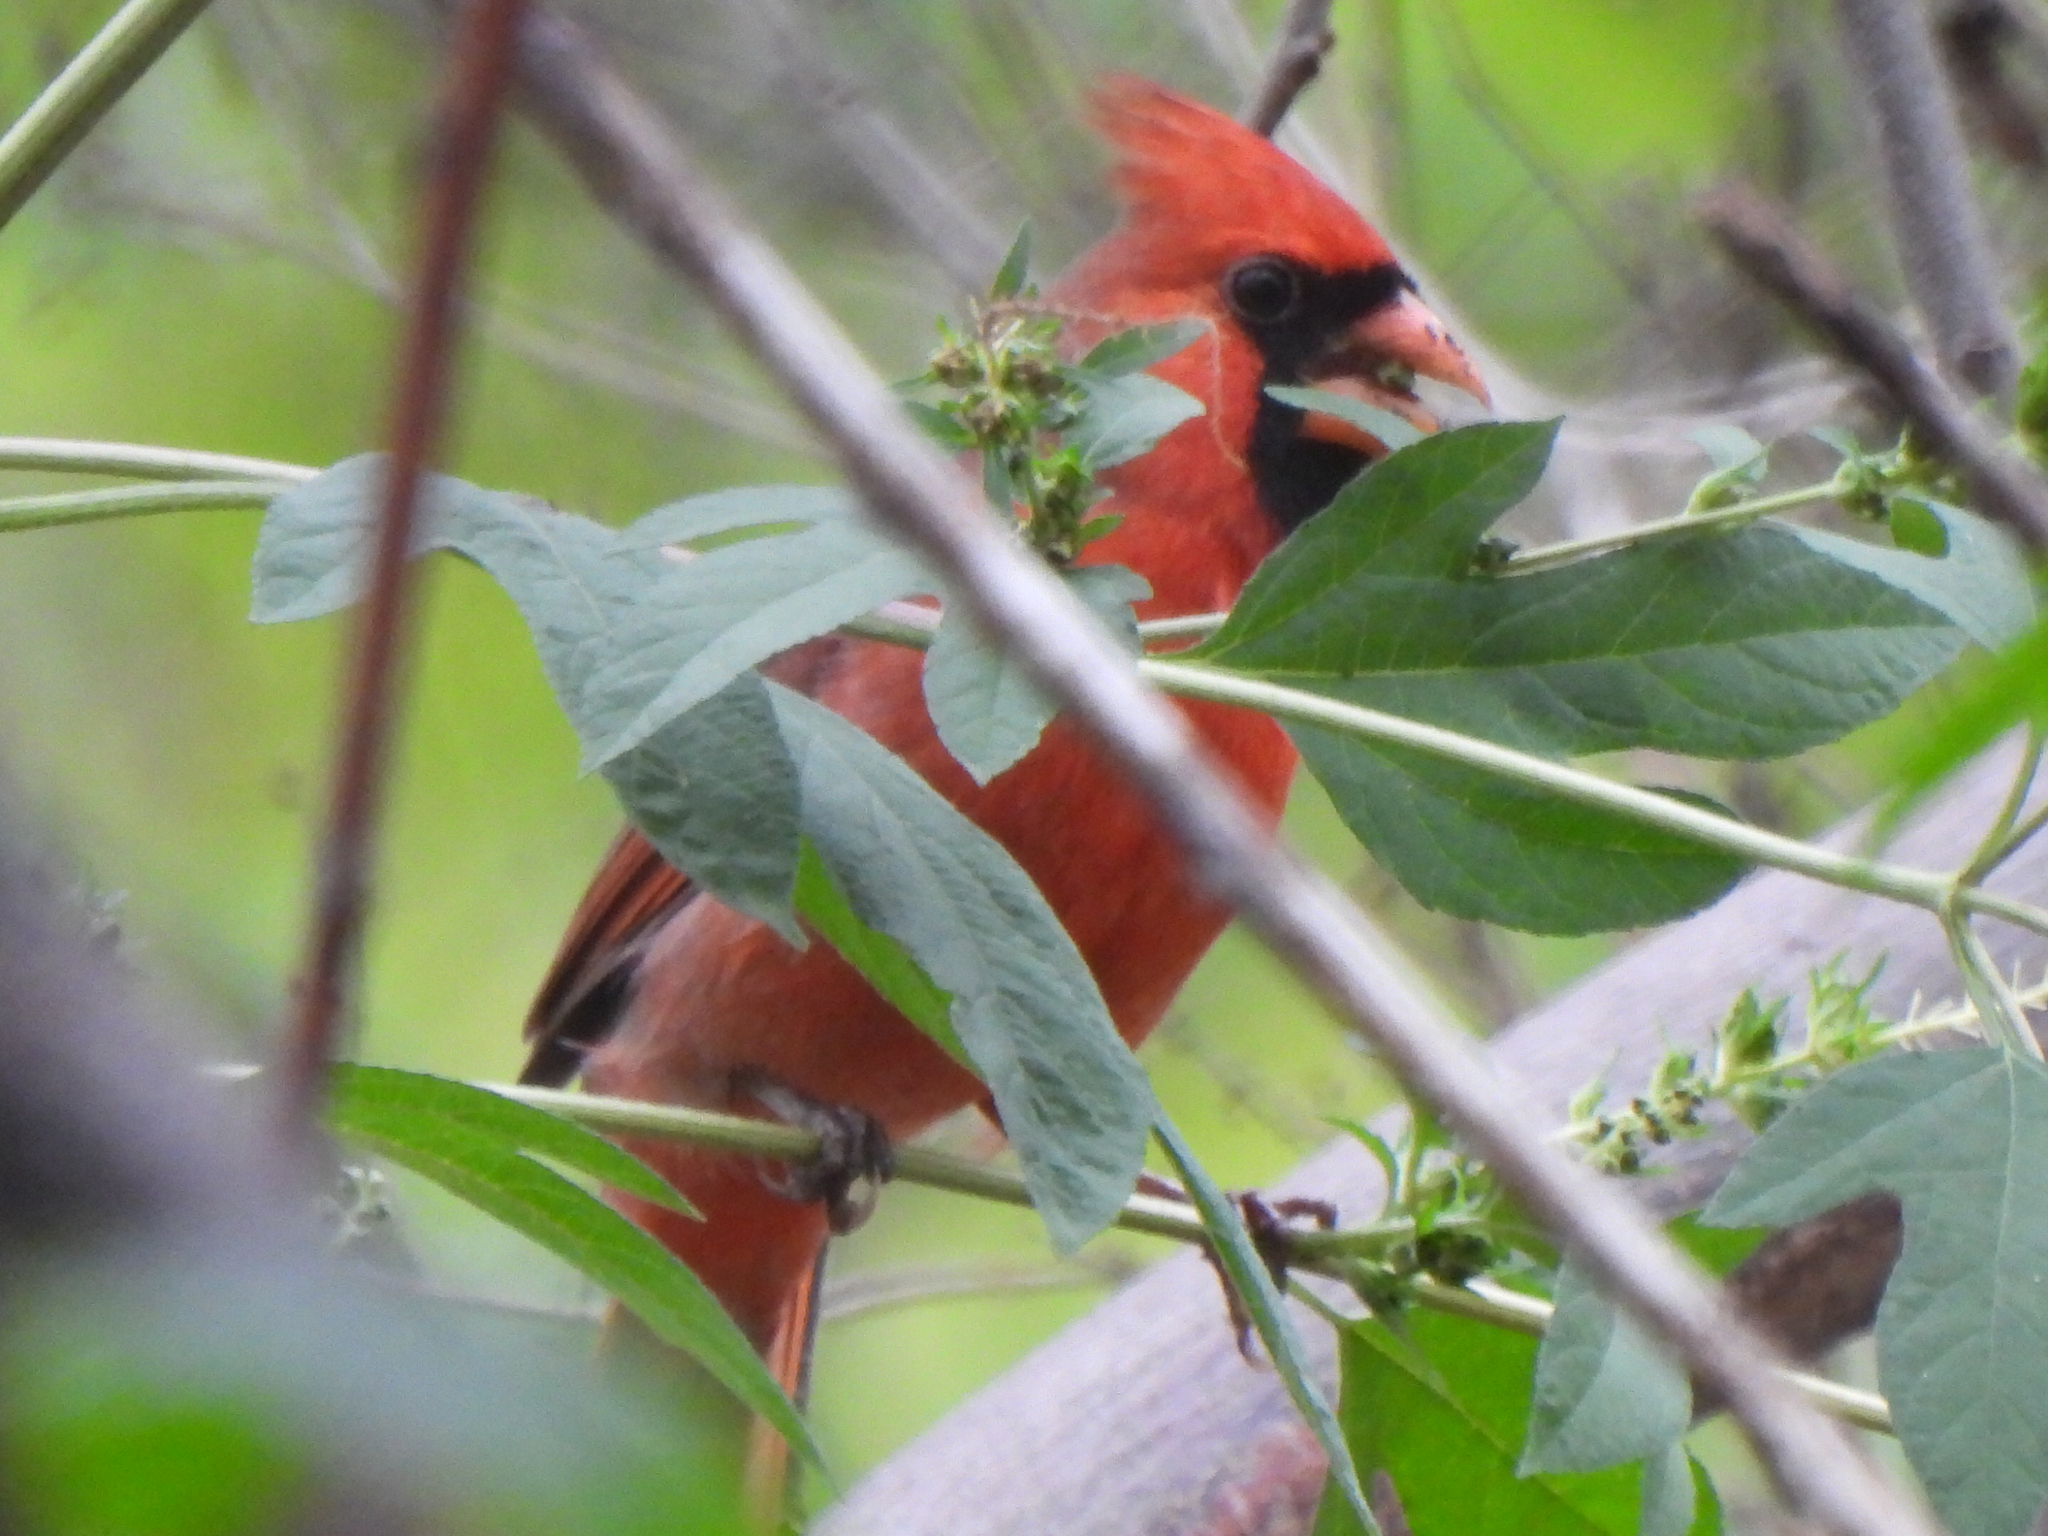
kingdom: Animalia
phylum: Chordata
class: Aves
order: Passeriformes
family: Cardinalidae
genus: Cardinalis
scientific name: Cardinalis cardinalis
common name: Northern cardinal
